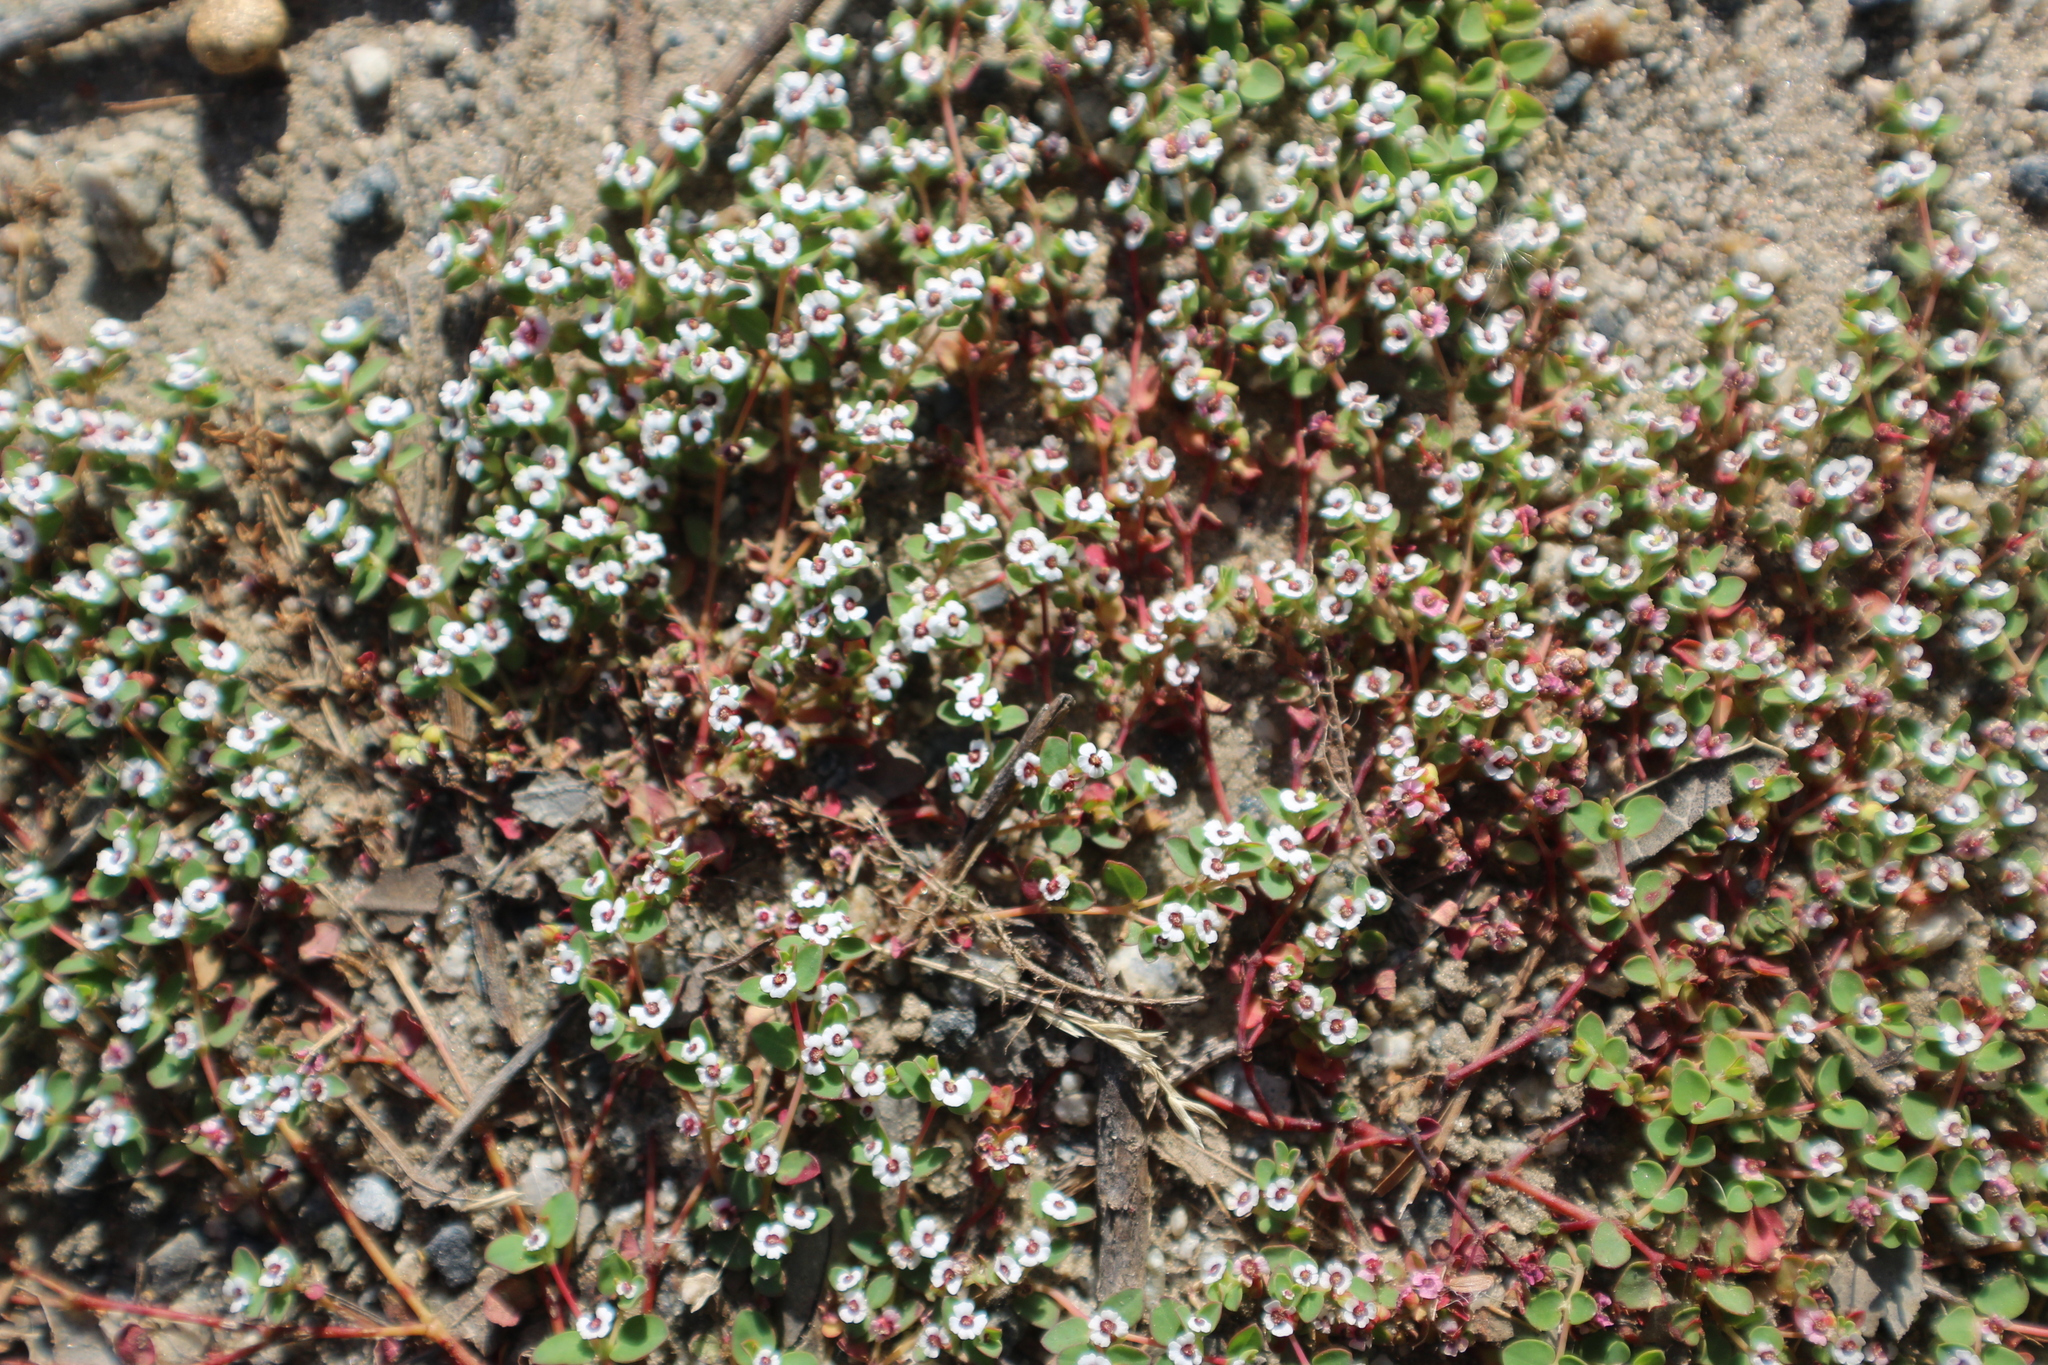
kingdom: Plantae
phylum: Tracheophyta
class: Magnoliopsida
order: Malpighiales
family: Euphorbiaceae
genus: Euphorbia
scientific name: Euphorbia polycarpa
